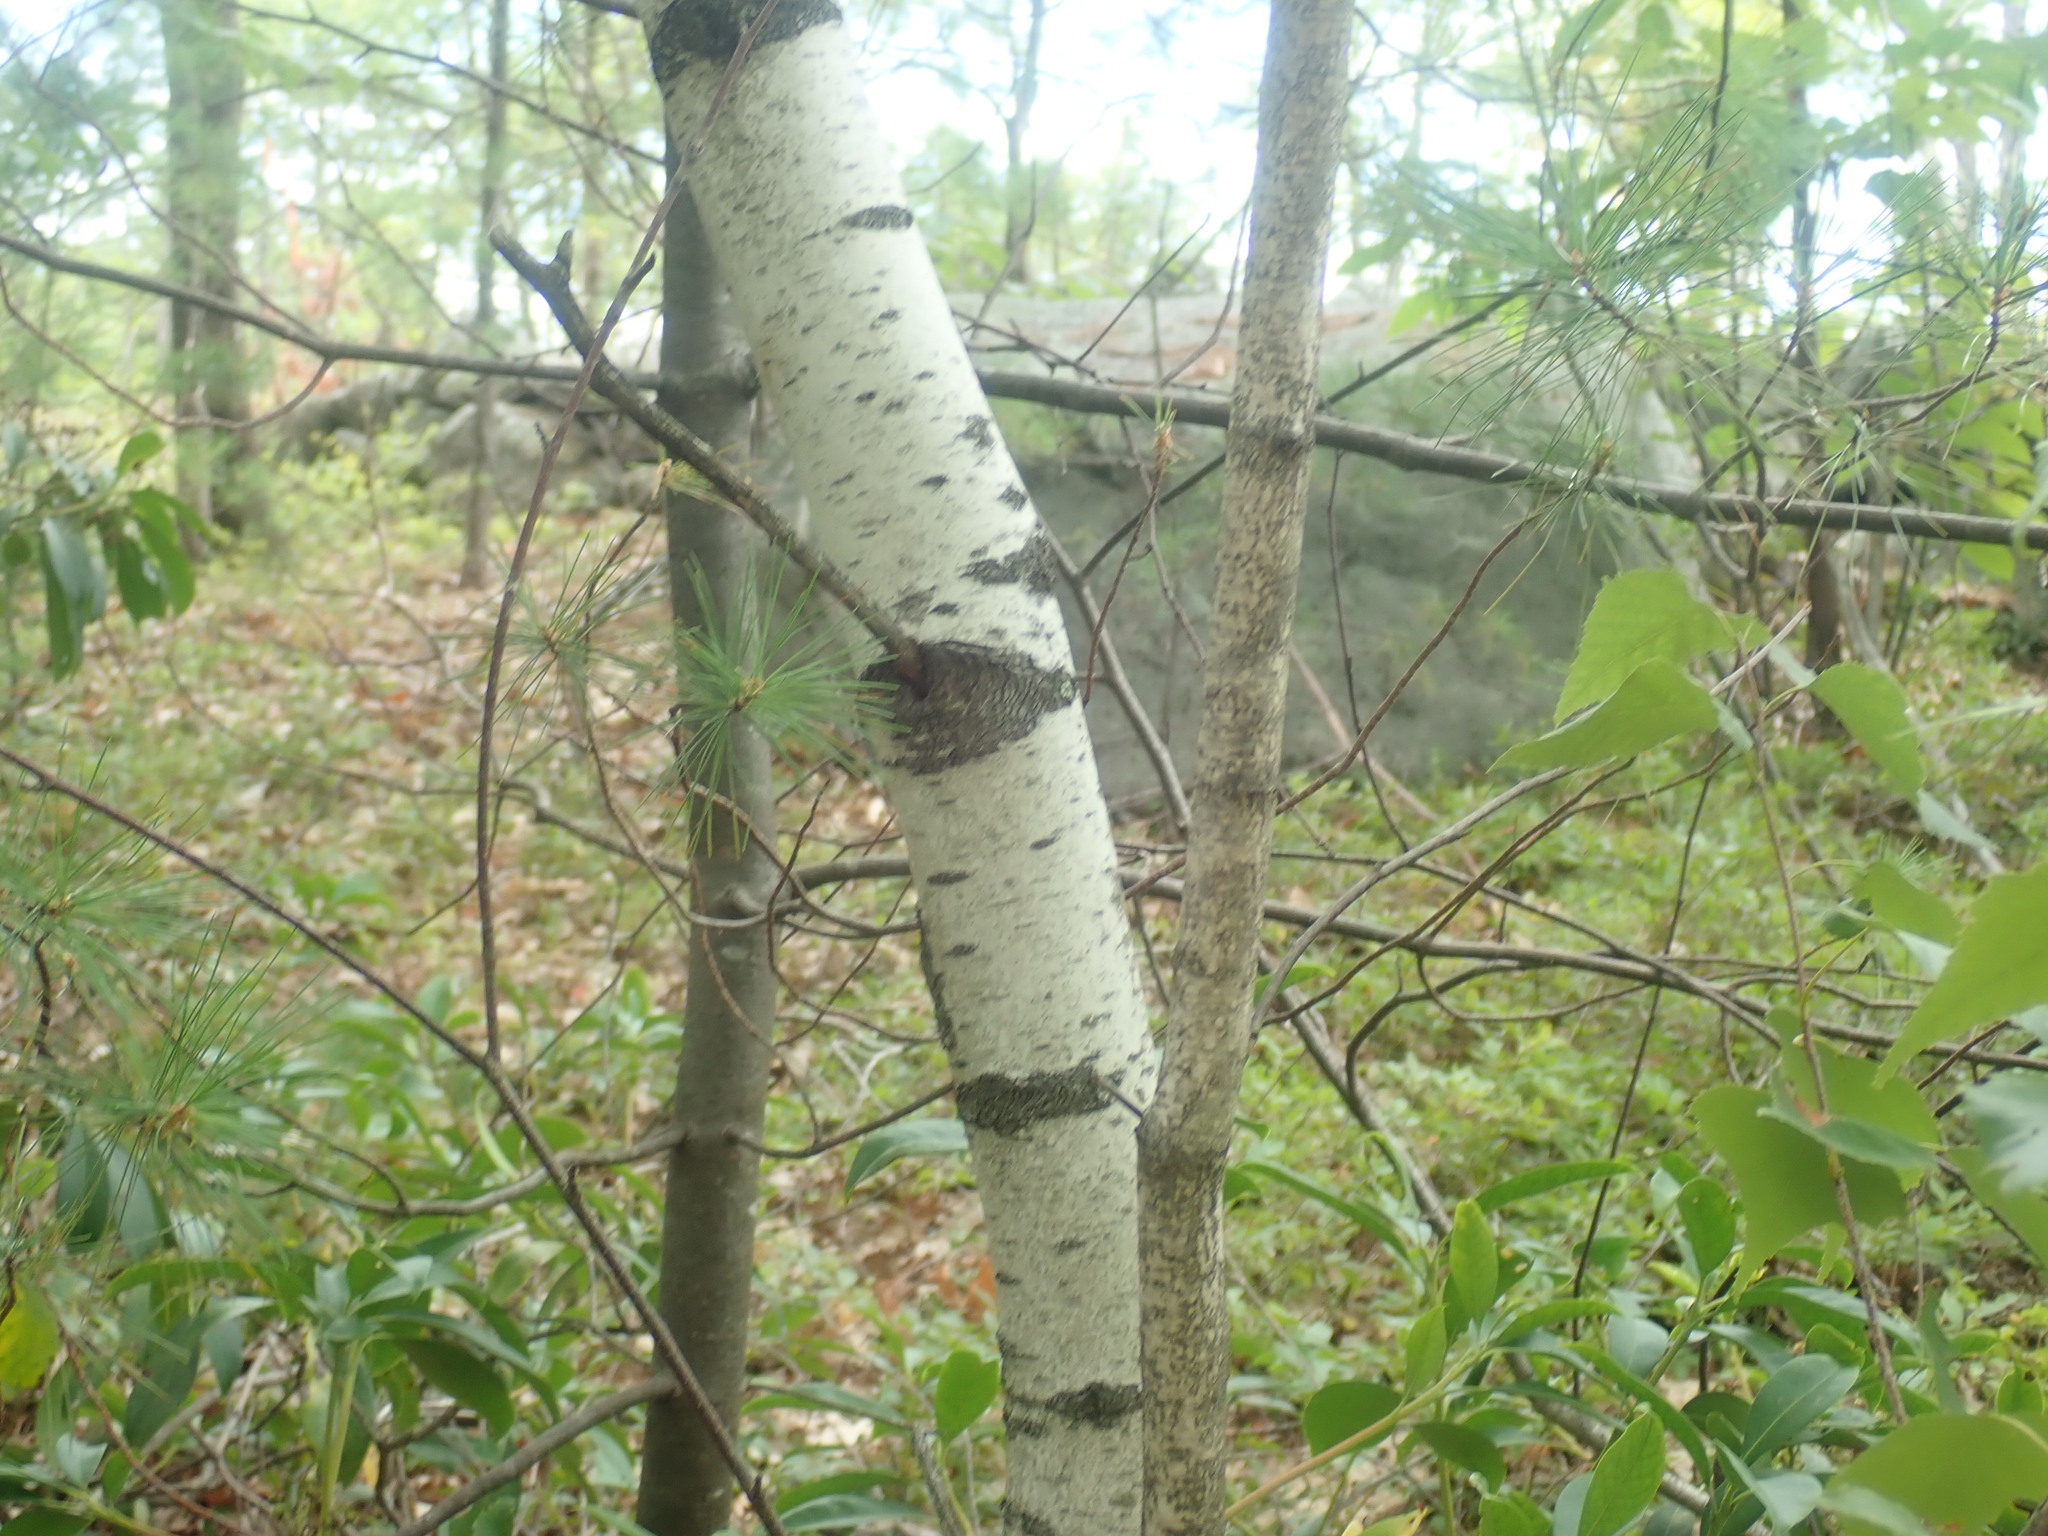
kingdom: Plantae
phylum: Tracheophyta
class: Magnoliopsida
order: Fagales
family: Betulaceae
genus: Betula
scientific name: Betula populifolia
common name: Fire birch
